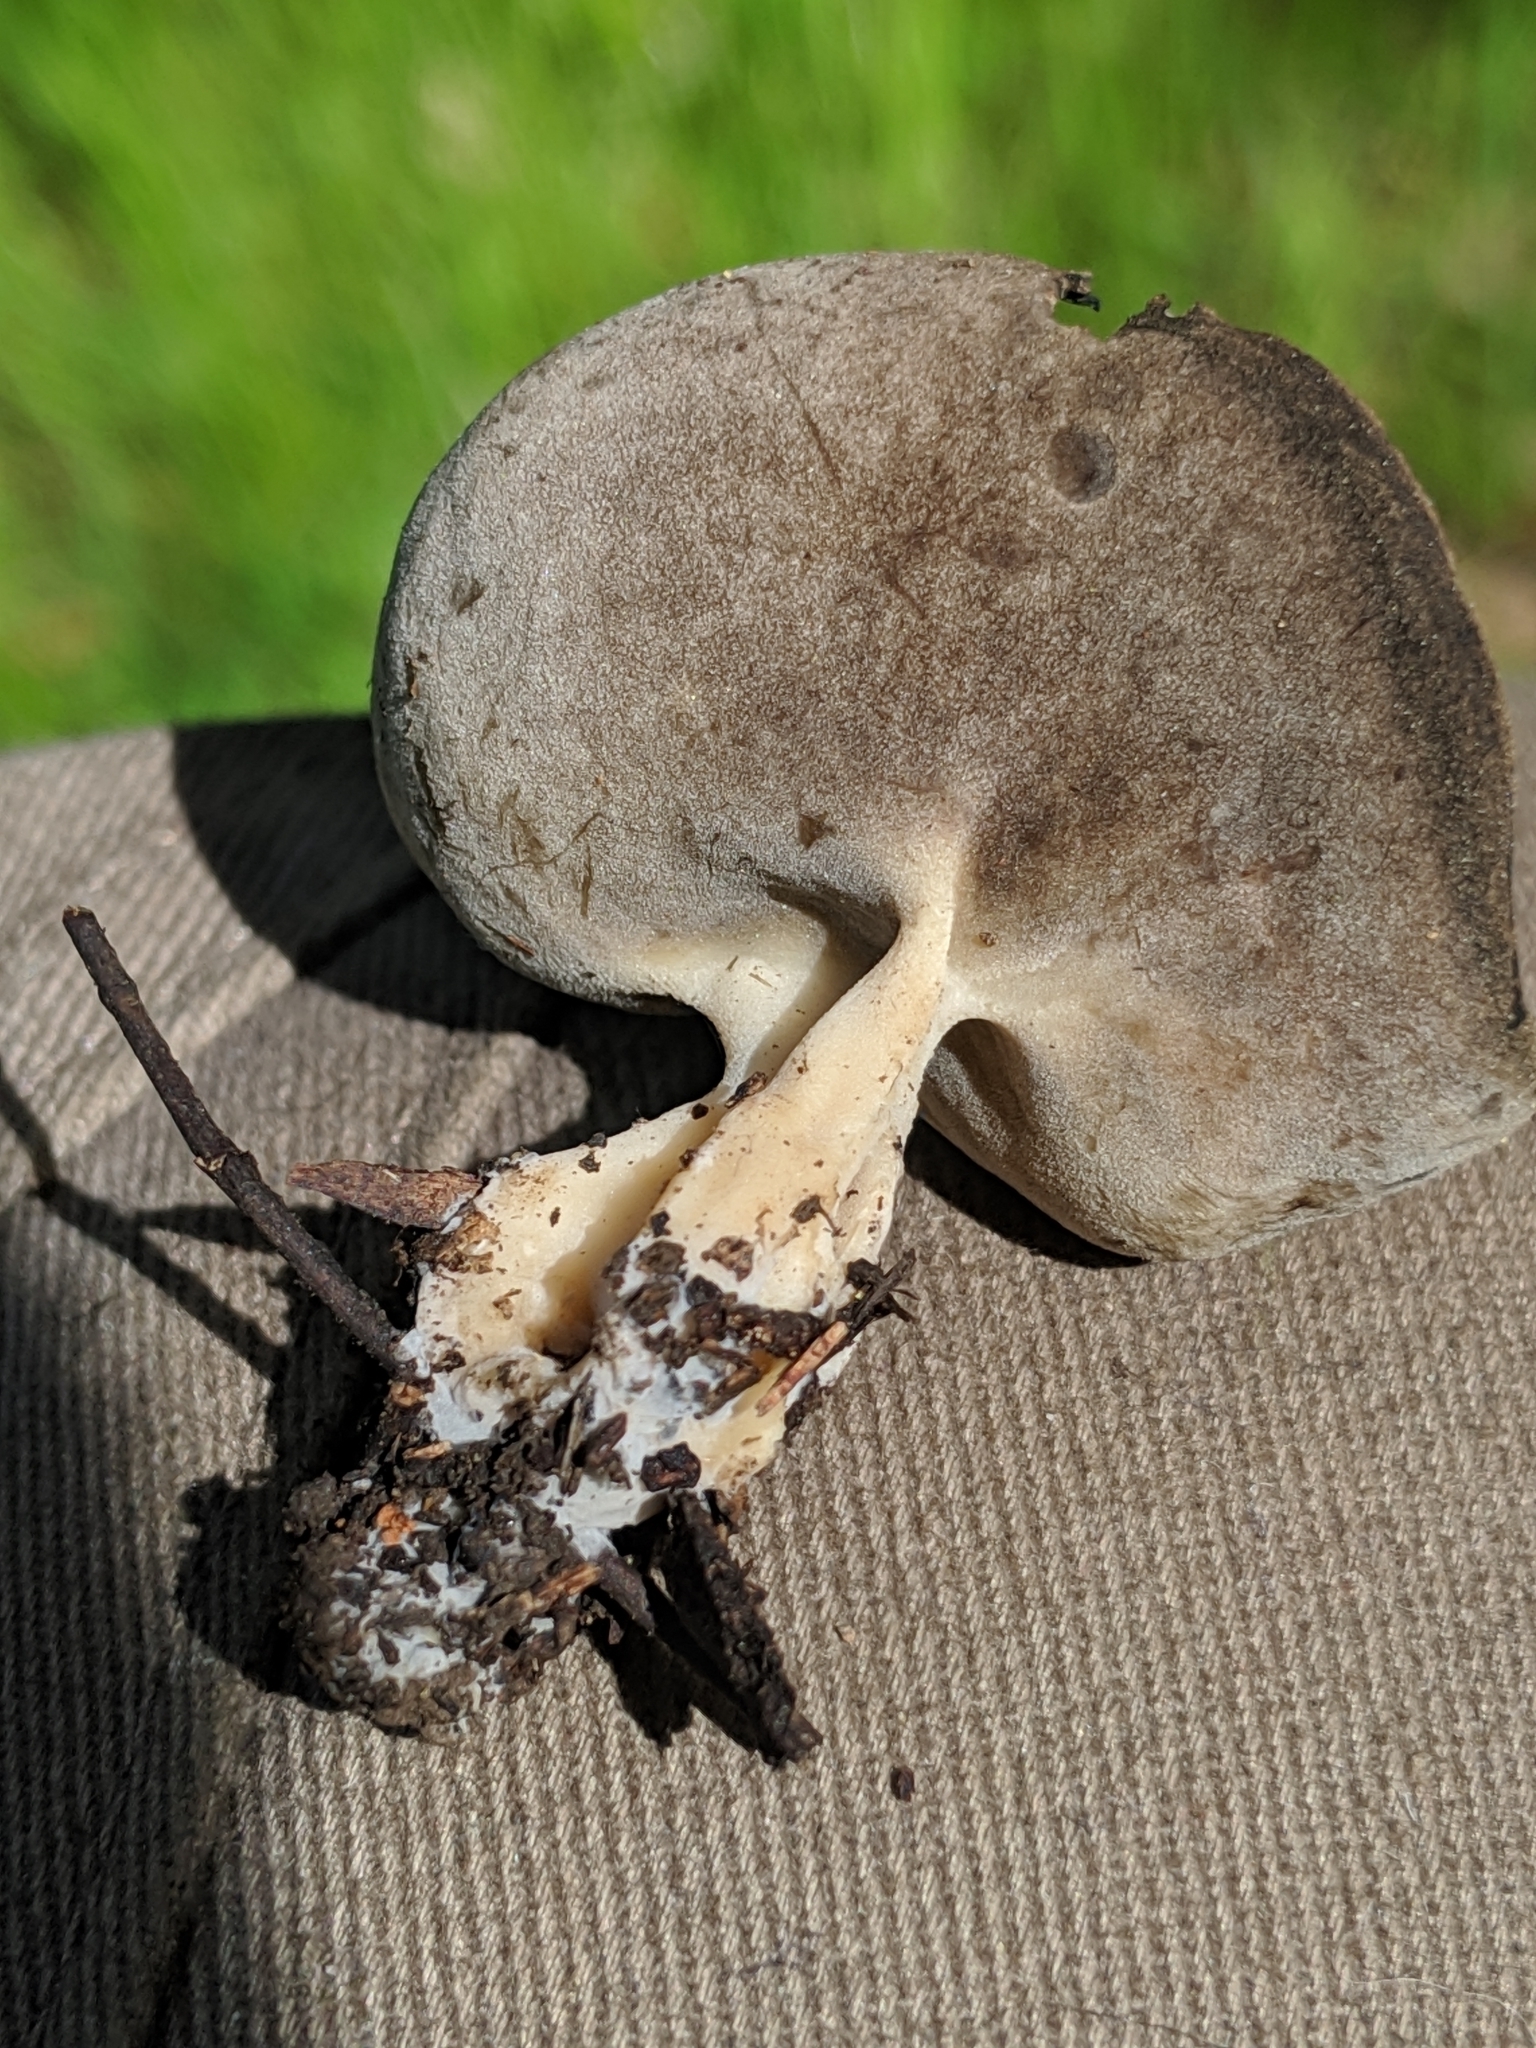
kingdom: Fungi
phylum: Ascomycota
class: Pezizomycetes
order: Pezizales
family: Helvellaceae
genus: Helvella
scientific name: Helvella solitaria
